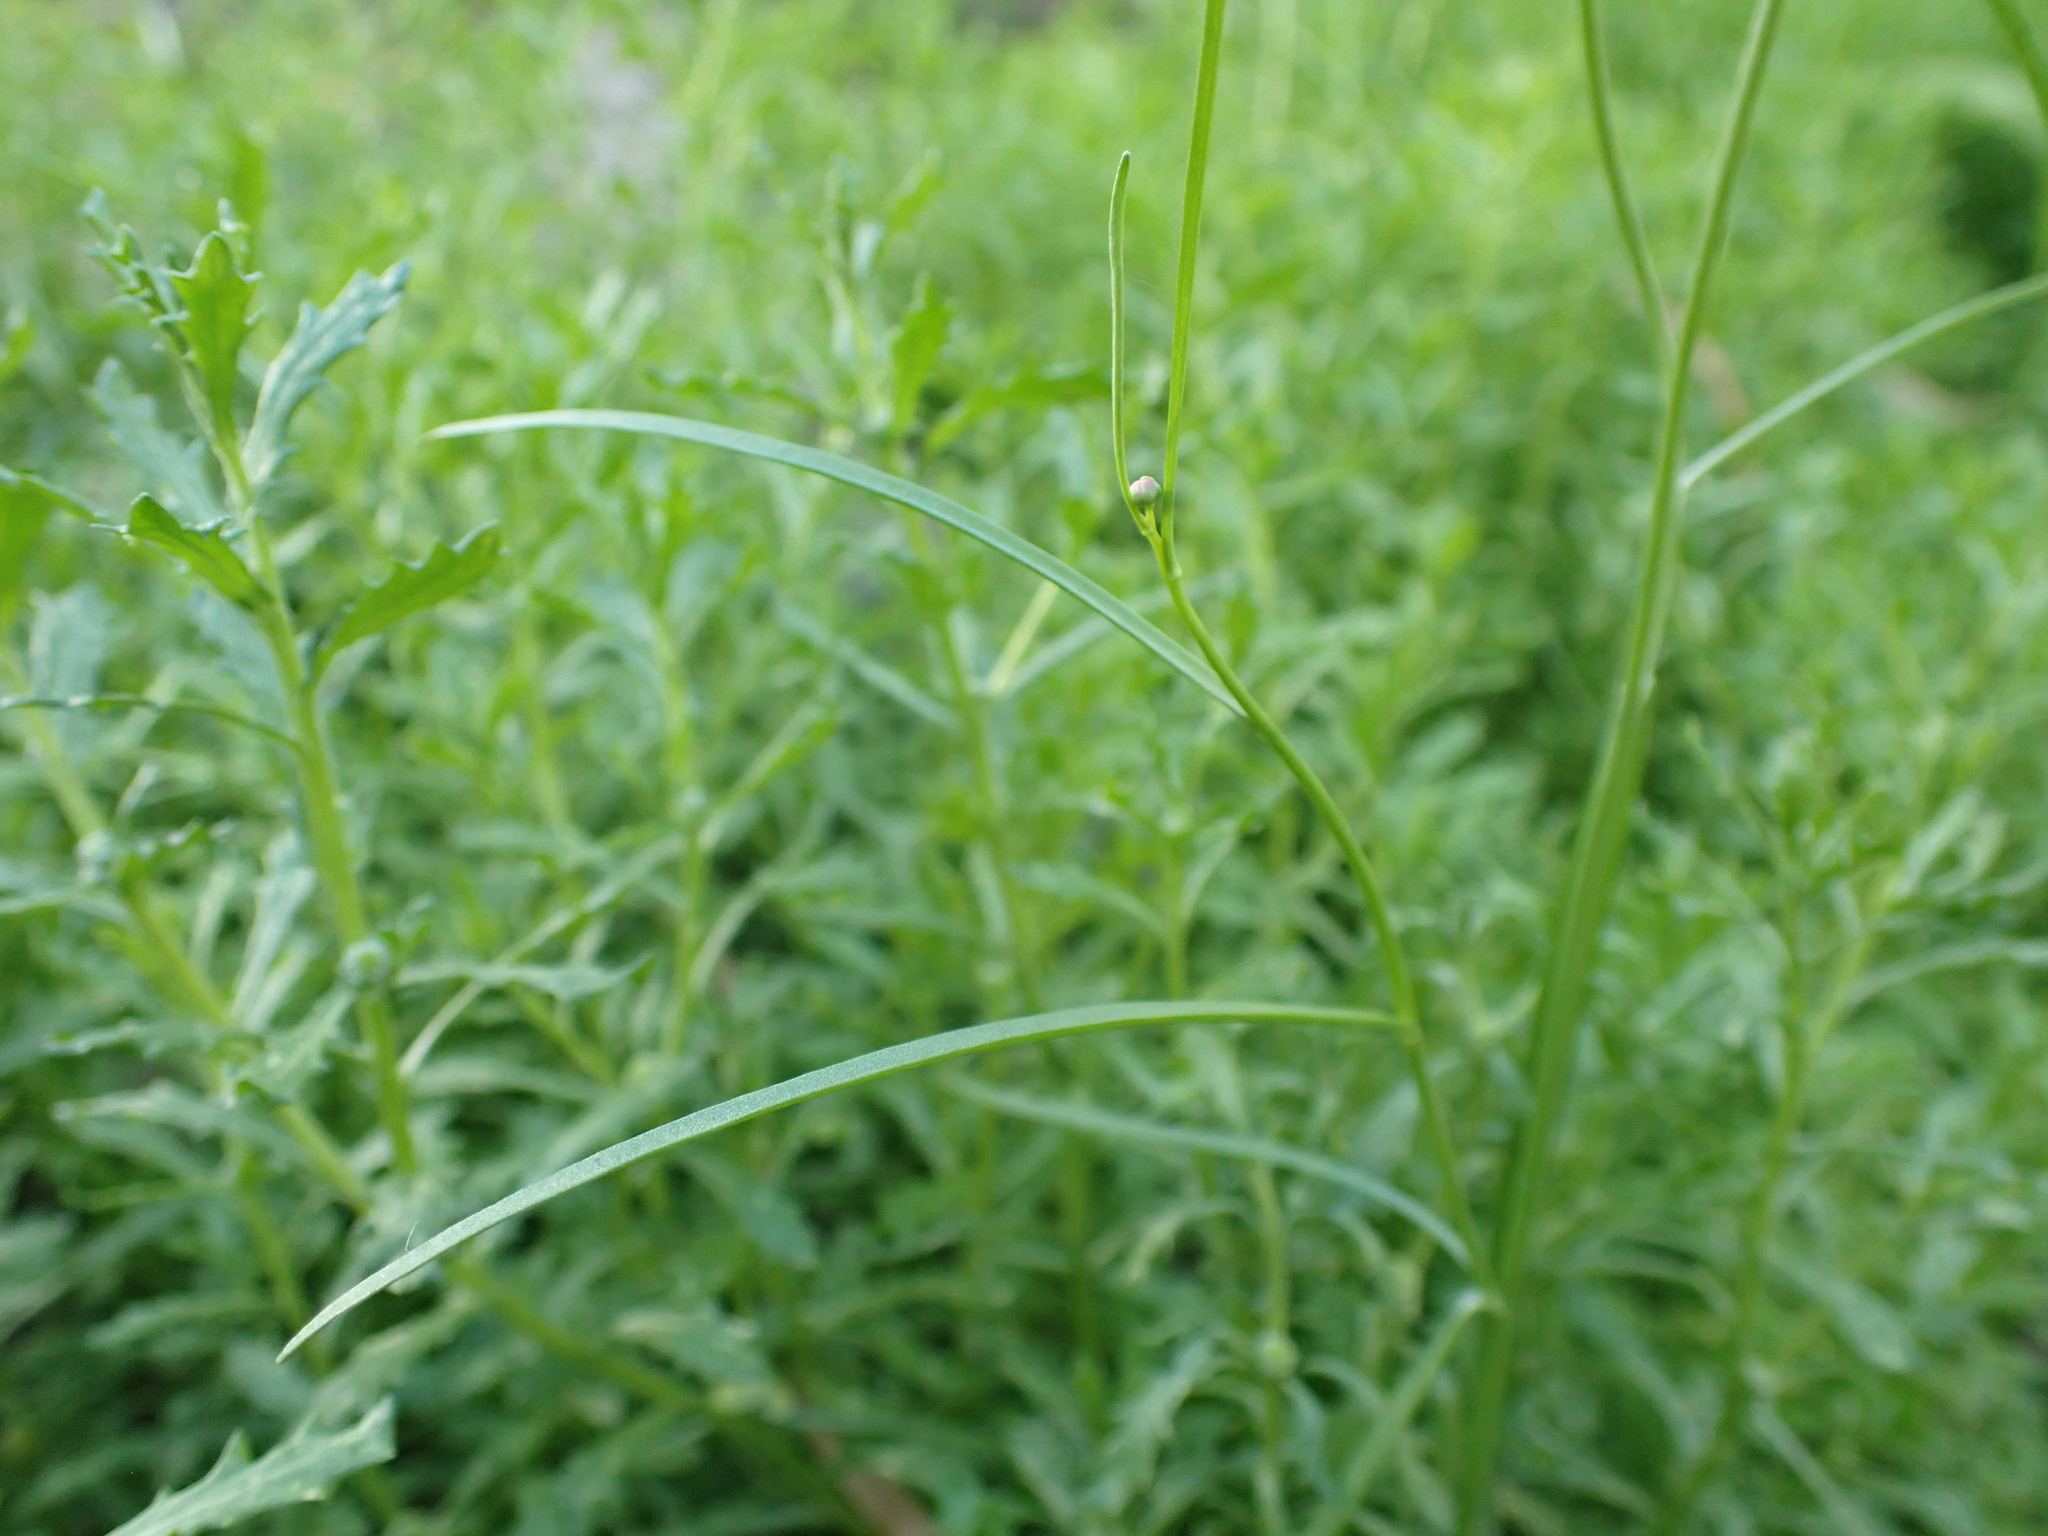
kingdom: Plantae
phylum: Tracheophyta
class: Magnoliopsida
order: Asterales
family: Asteraceae
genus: Brachyscome
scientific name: Brachyscome paludicola
